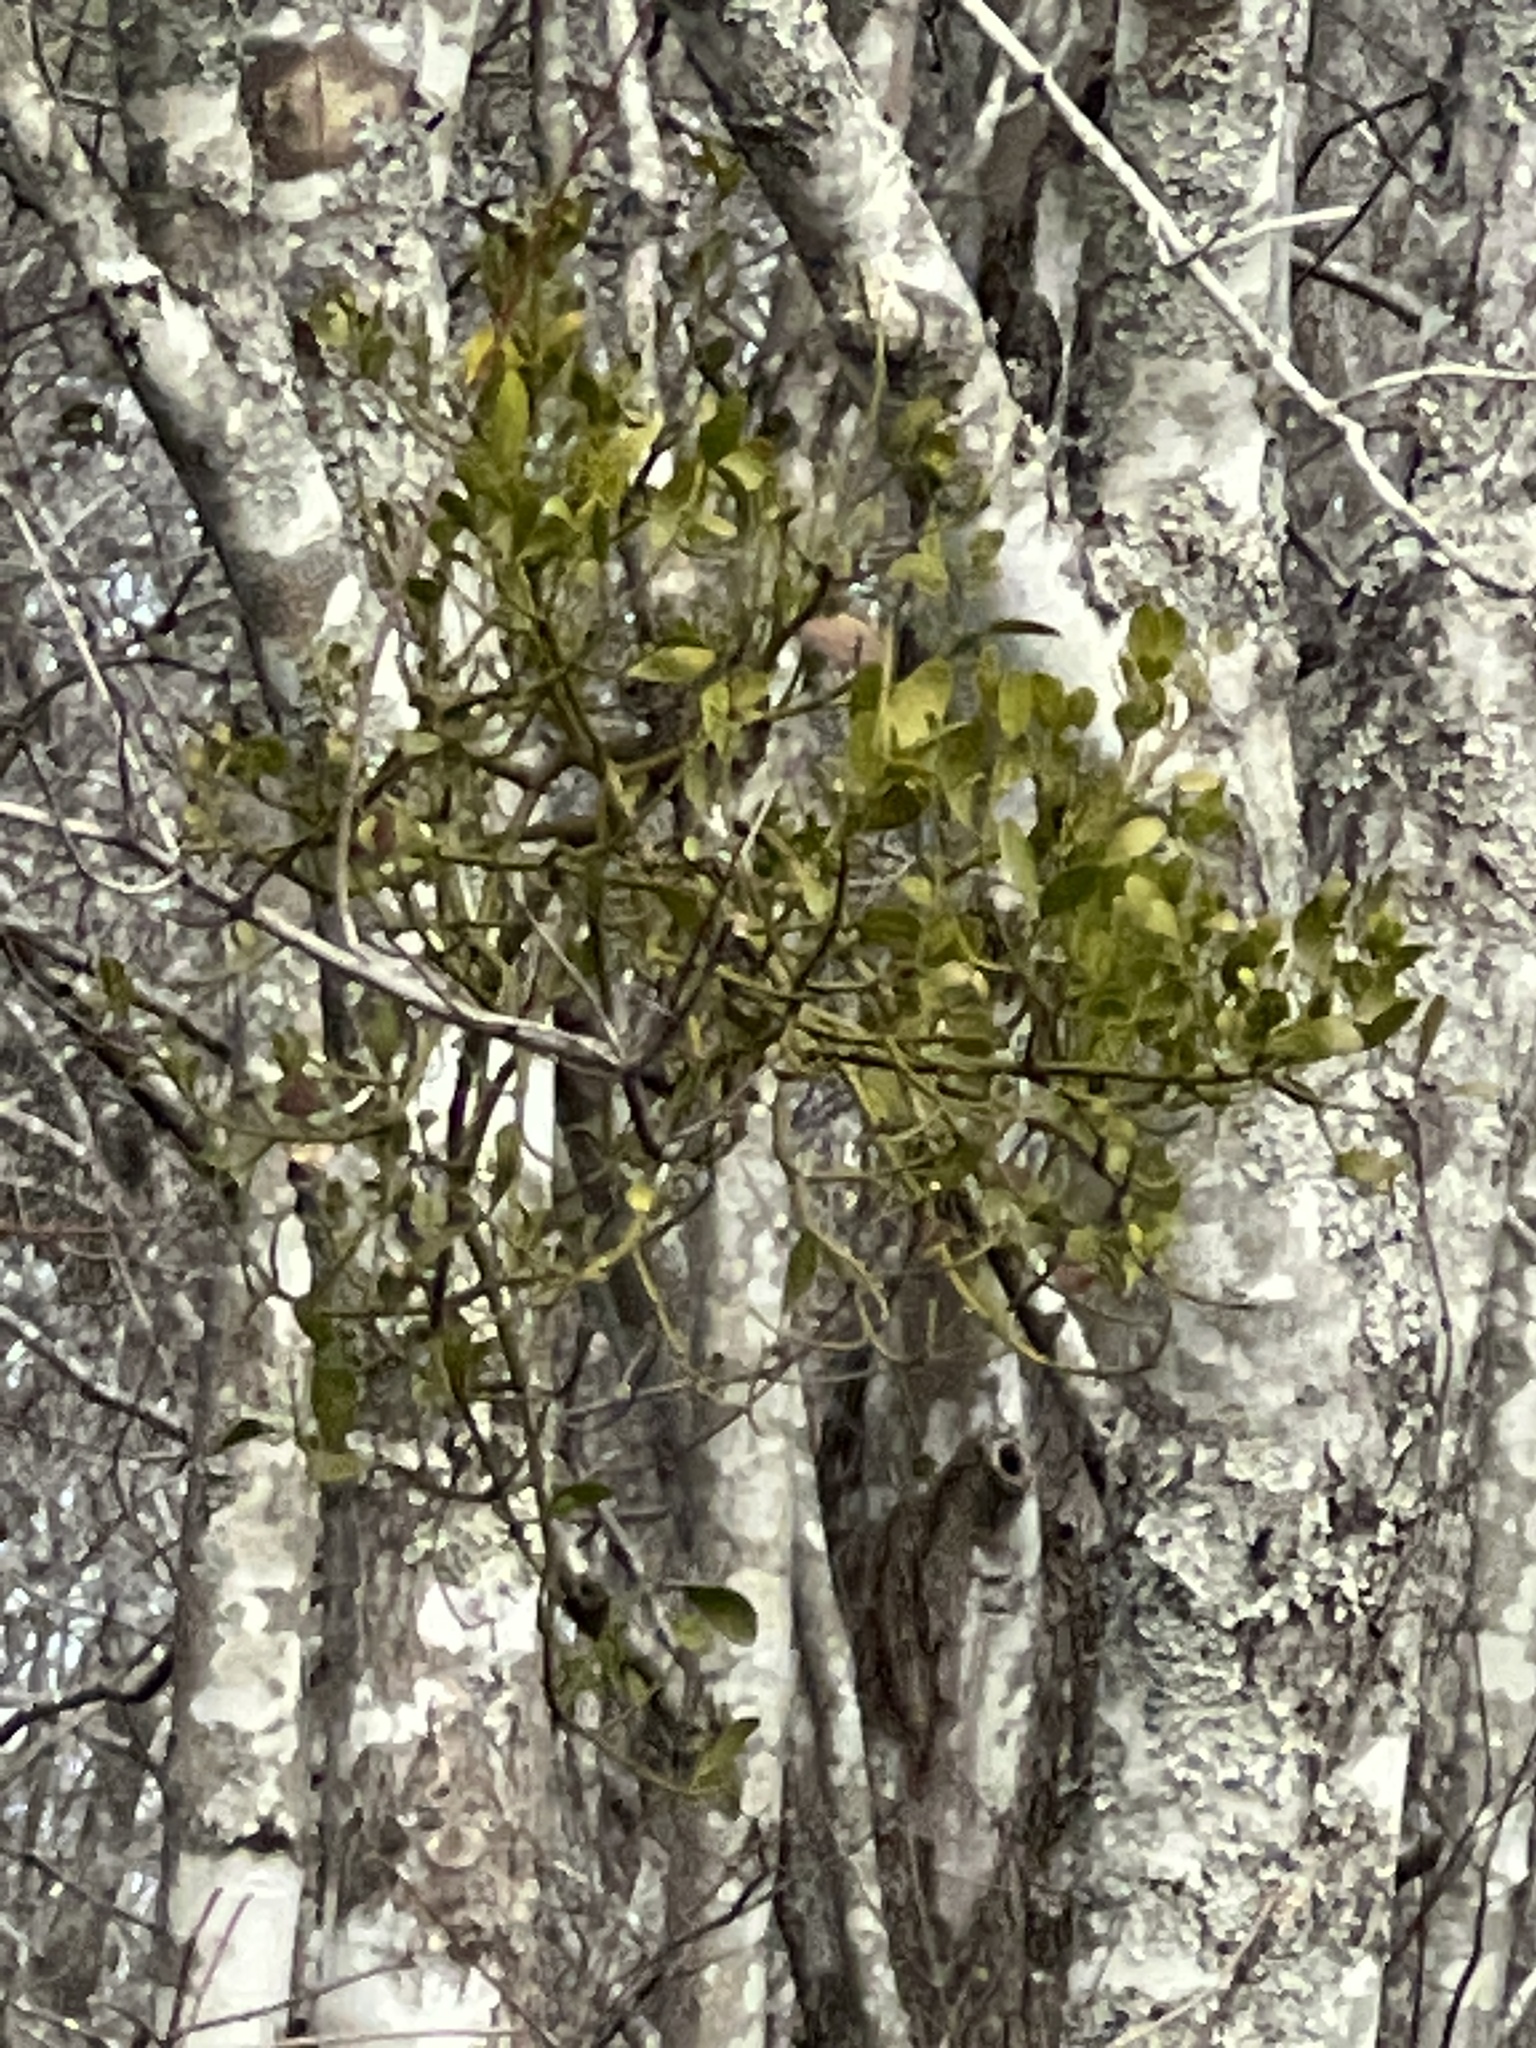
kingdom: Plantae
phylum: Tracheophyta
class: Magnoliopsida
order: Santalales
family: Viscaceae
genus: Phoradendron
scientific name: Phoradendron leucarpum
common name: Pacific mistletoe
